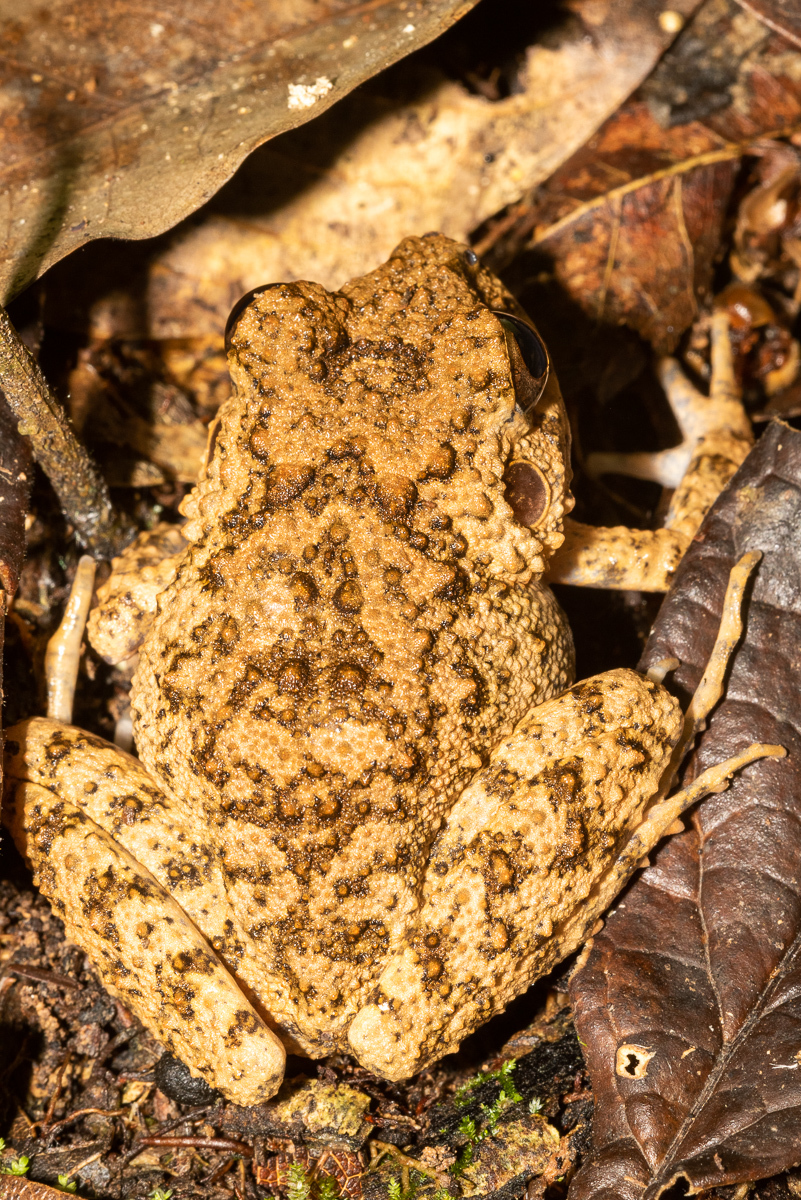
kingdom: Animalia
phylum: Chordata
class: Amphibia
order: Anura
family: Craugastoridae
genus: Oreobates
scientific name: Oreobates quixensis
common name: Common big-headed frog
